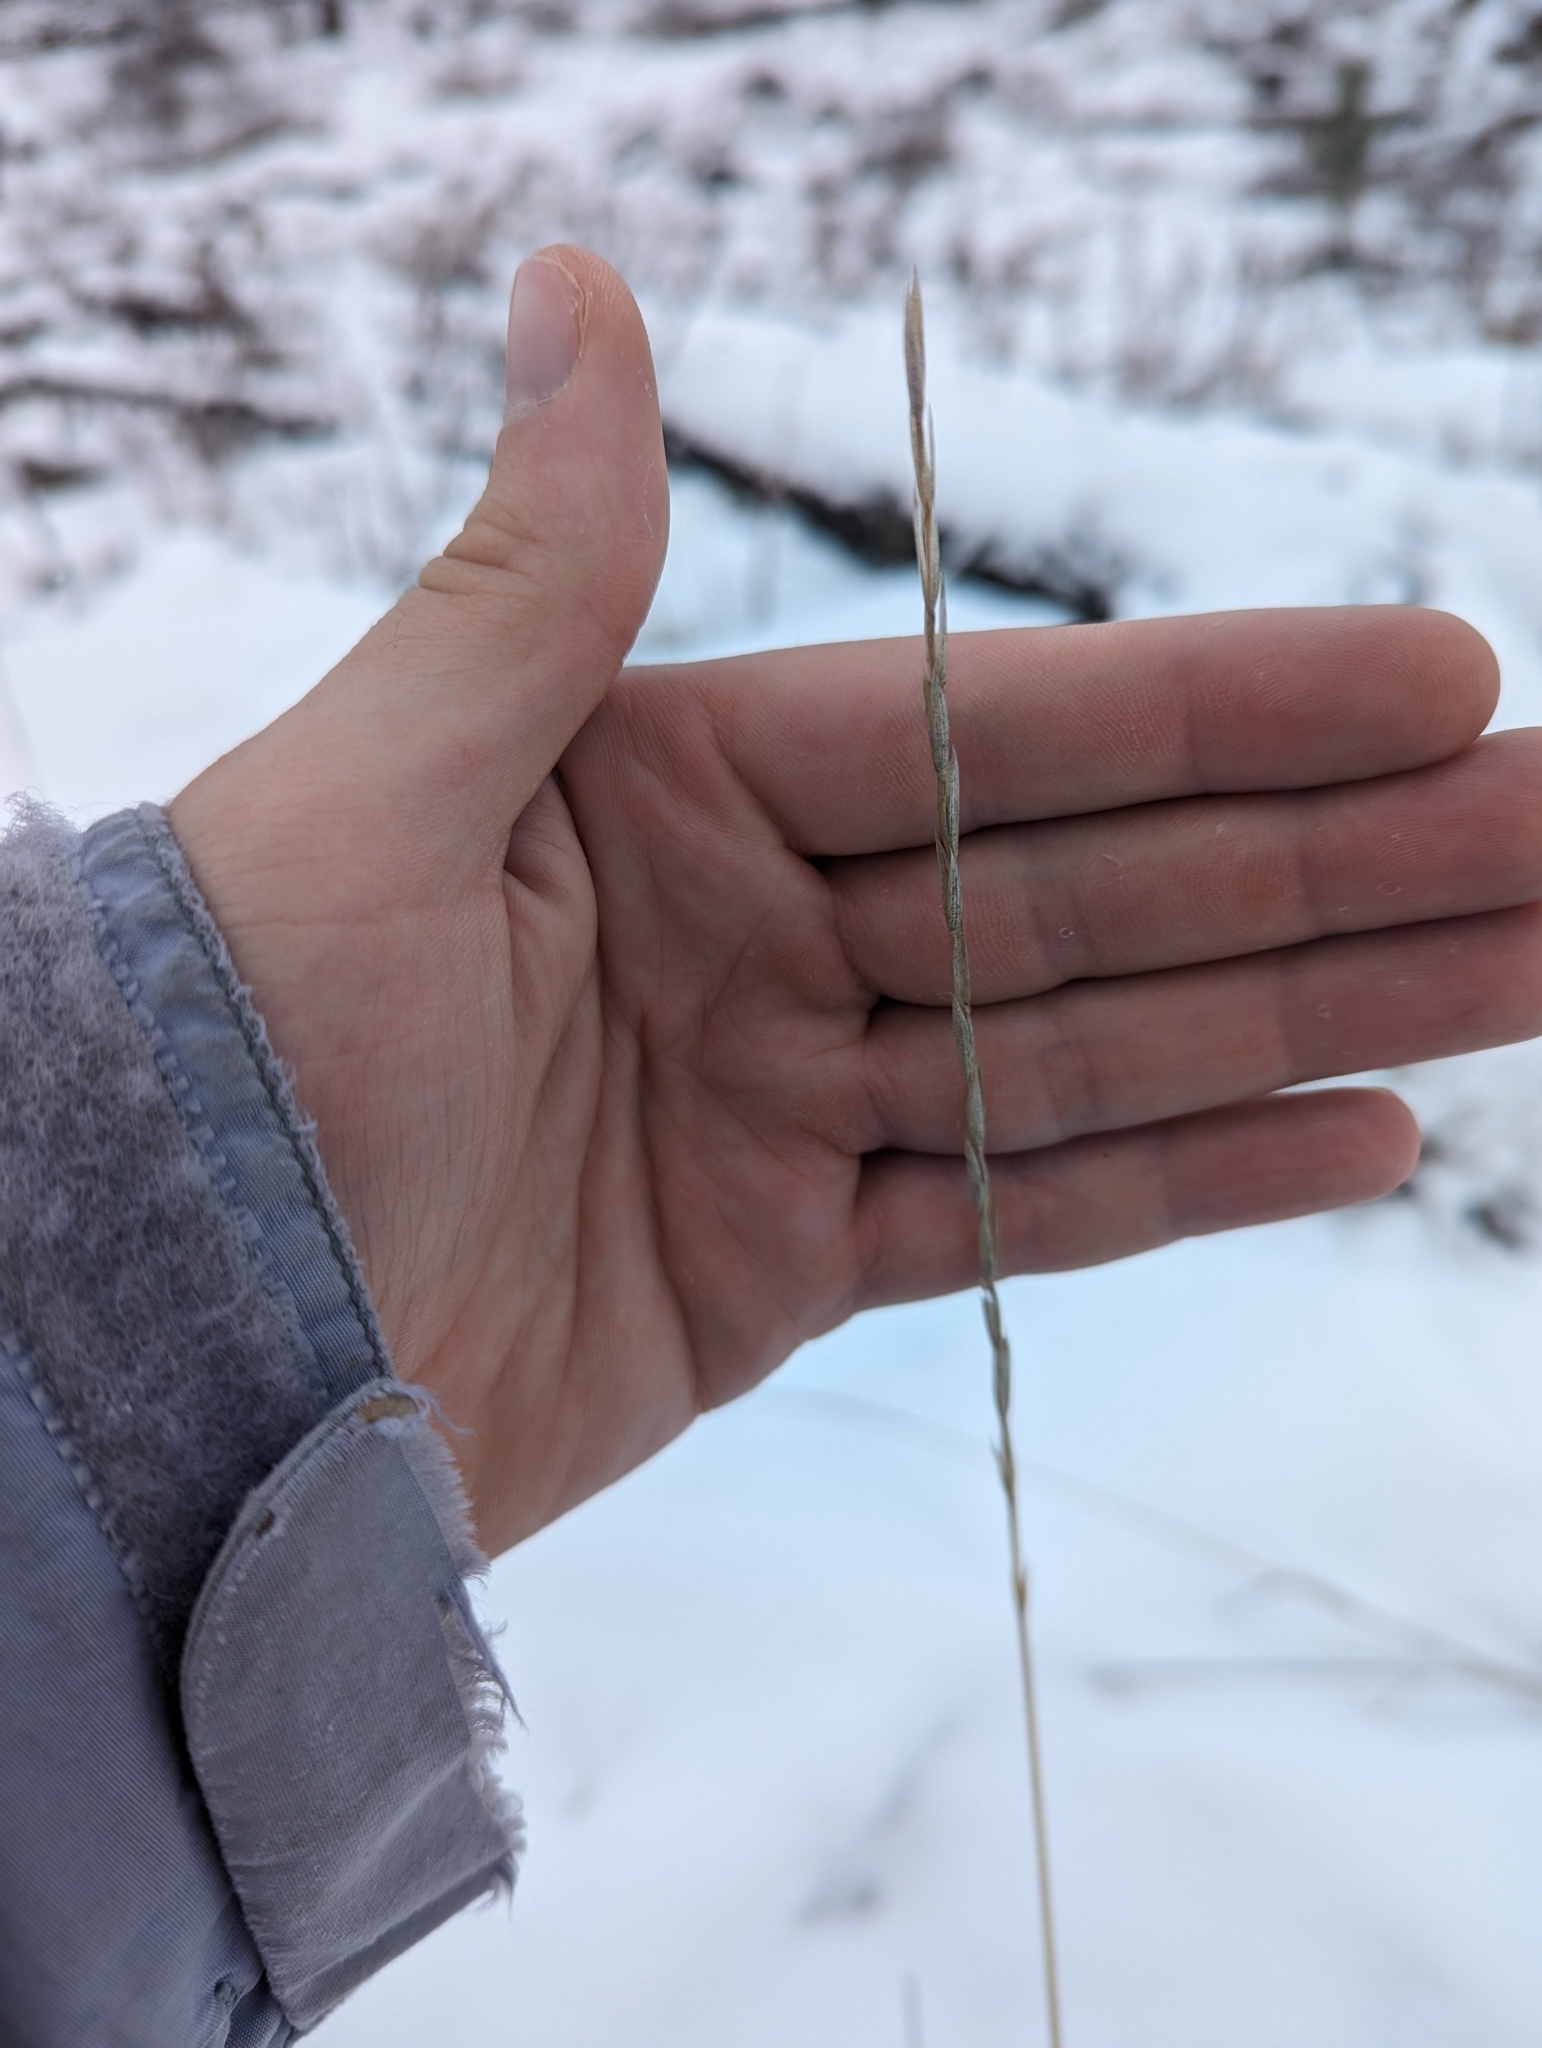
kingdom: Plantae
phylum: Tracheophyta
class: Liliopsida
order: Poales
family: Poaceae
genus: Elymus
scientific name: Elymus violaceus
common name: Arctic wheatgrass
